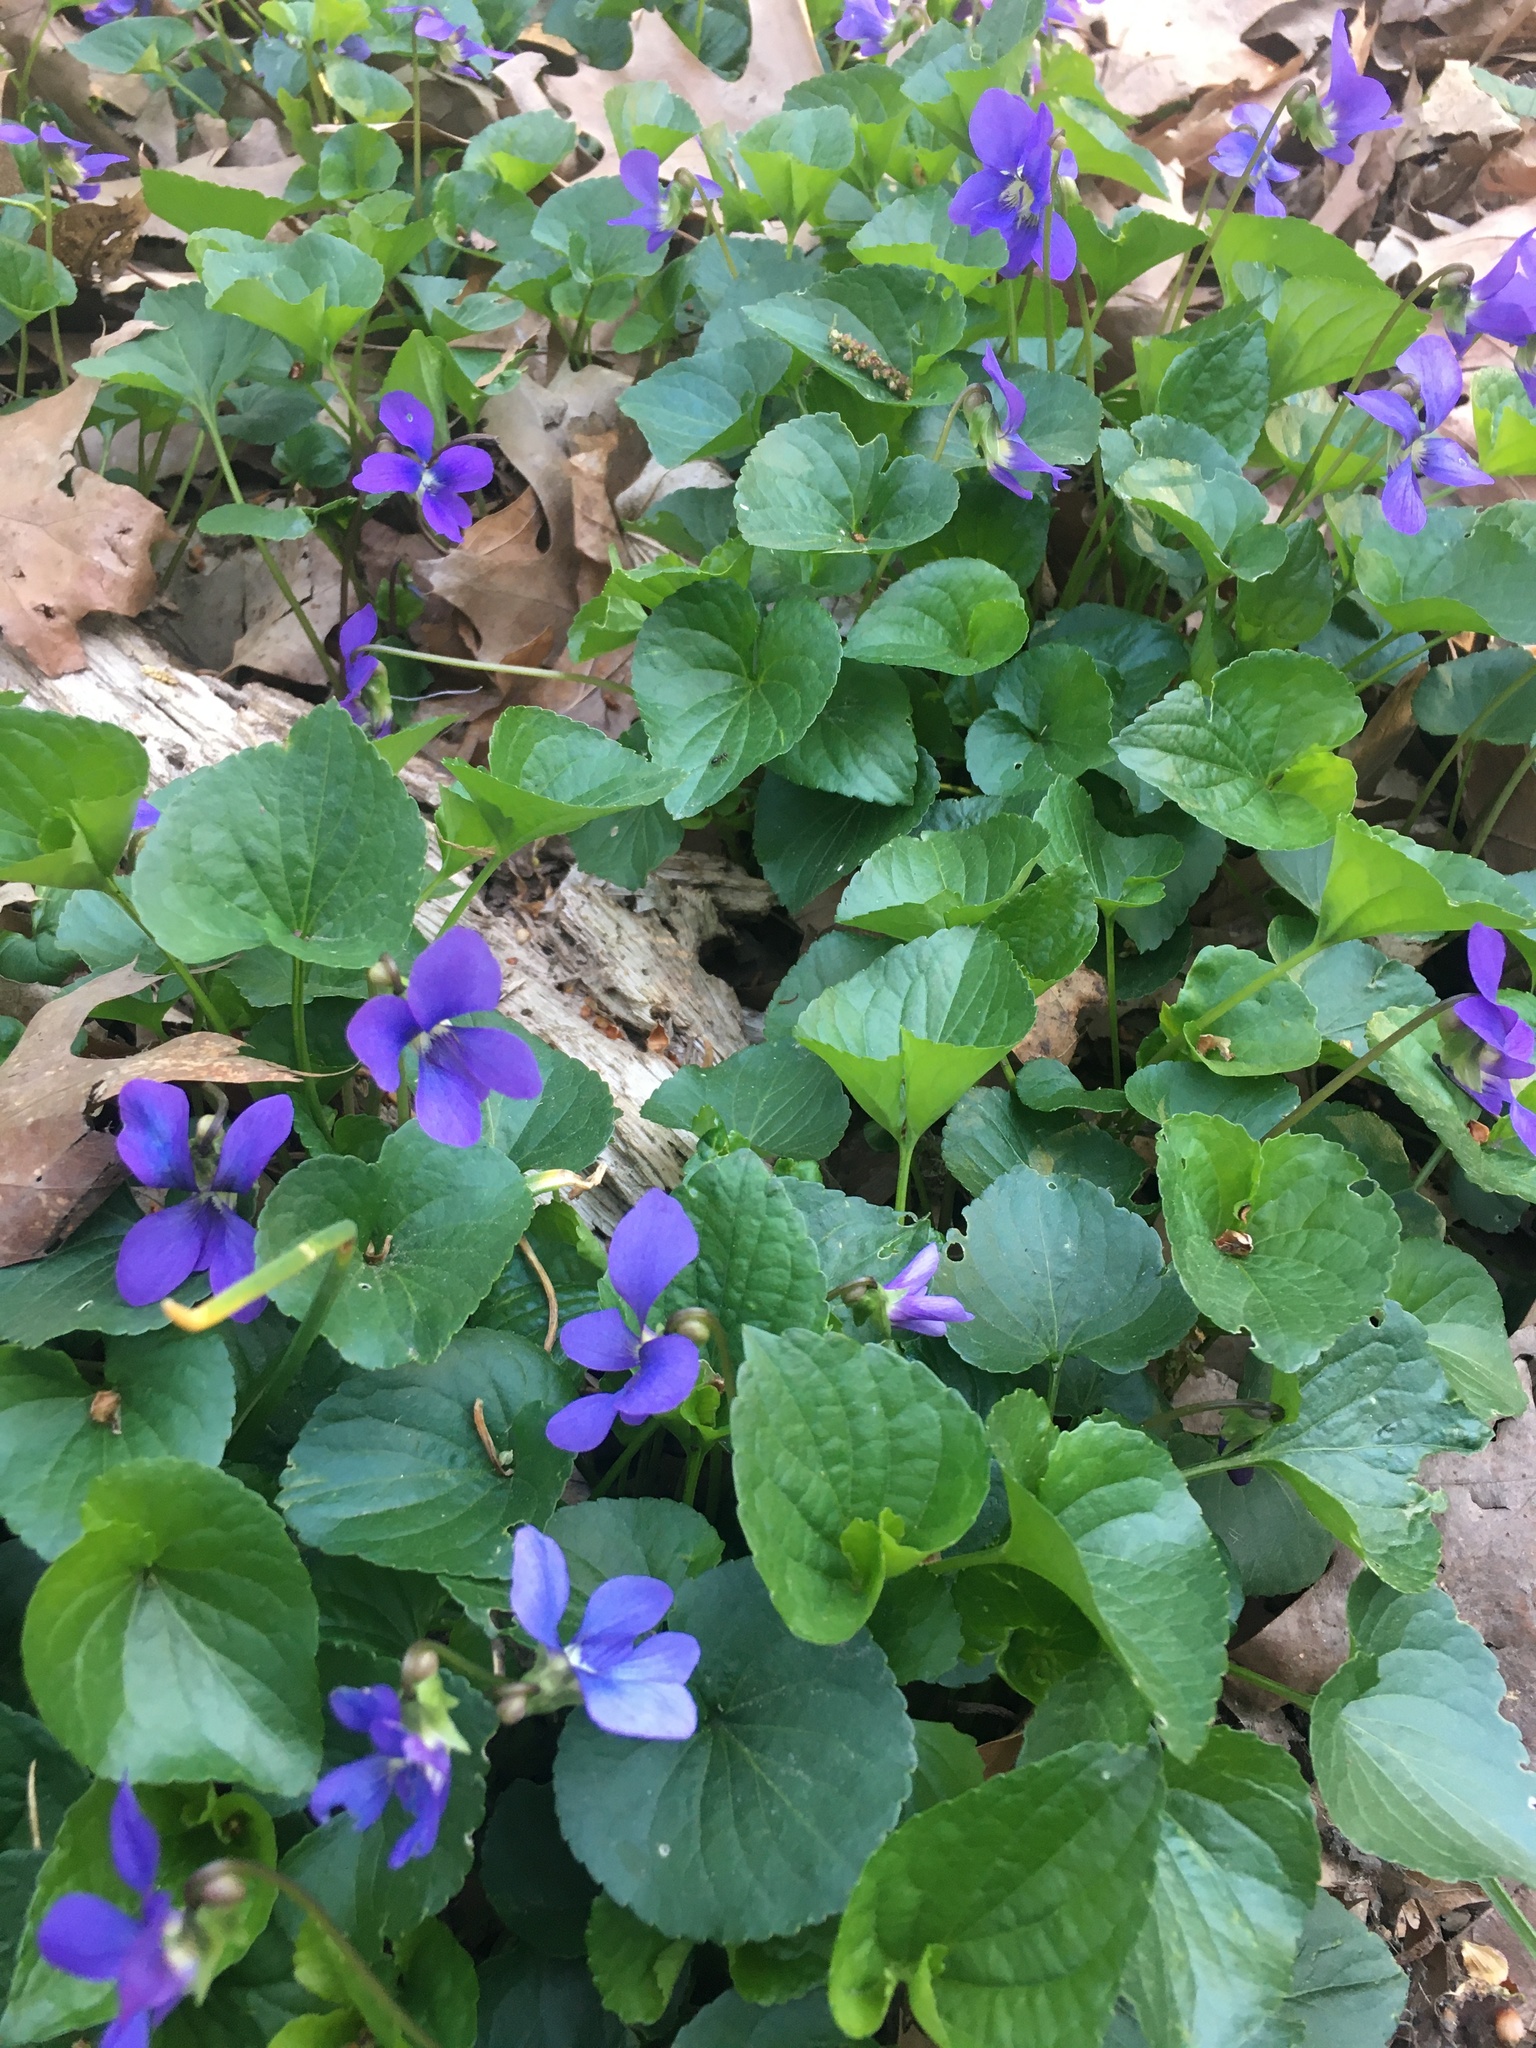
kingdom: Plantae
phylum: Tracheophyta
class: Magnoliopsida
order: Malpighiales
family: Violaceae
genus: Viola
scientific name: Viola sororia
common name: Dooryard violet
